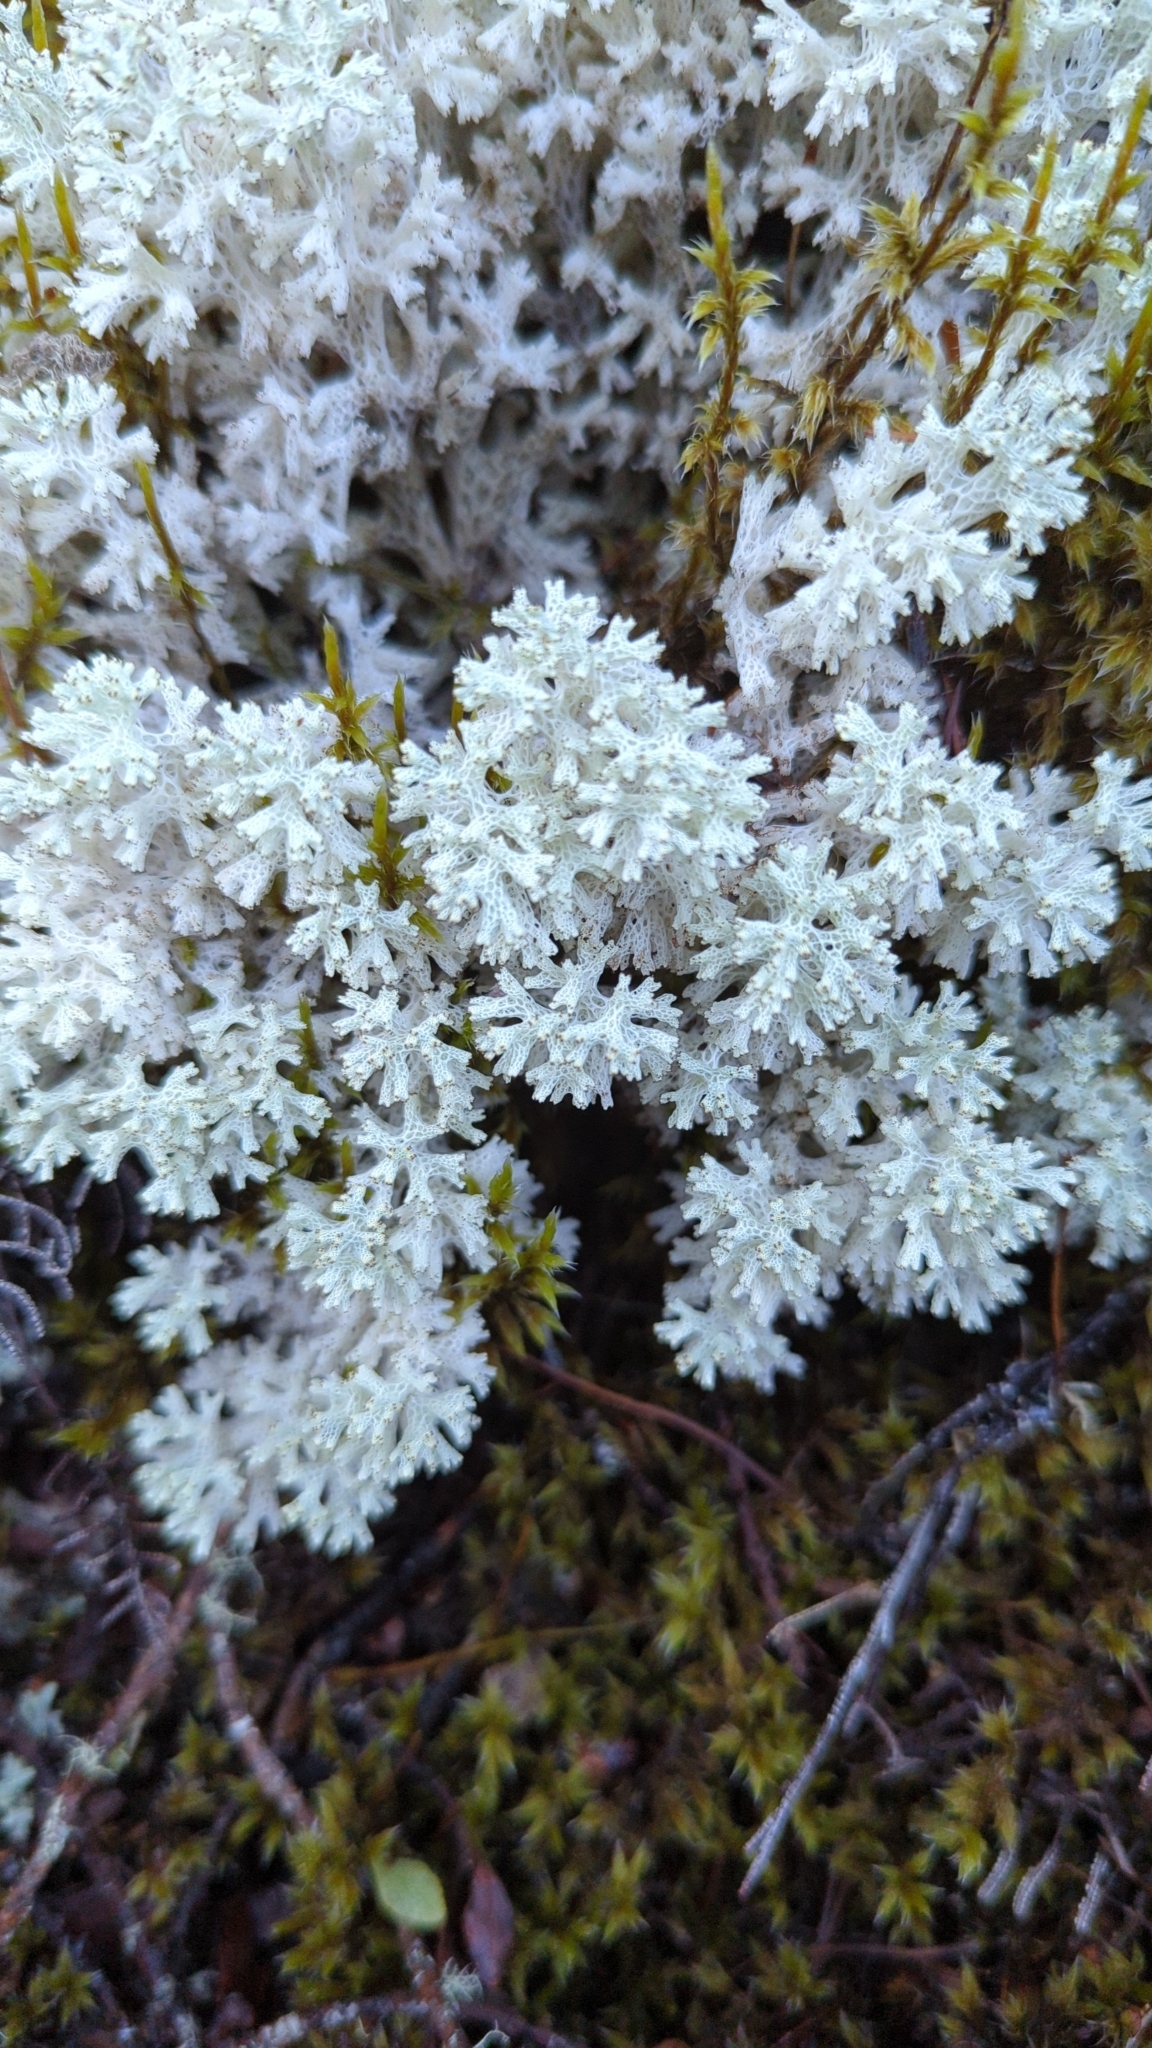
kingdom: Fungi
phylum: Ascomycota
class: Lecanoromycetes
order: Lecanorales
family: Cladoniaceae
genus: Pulchrocladia
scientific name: Pulchrocladia retipora
